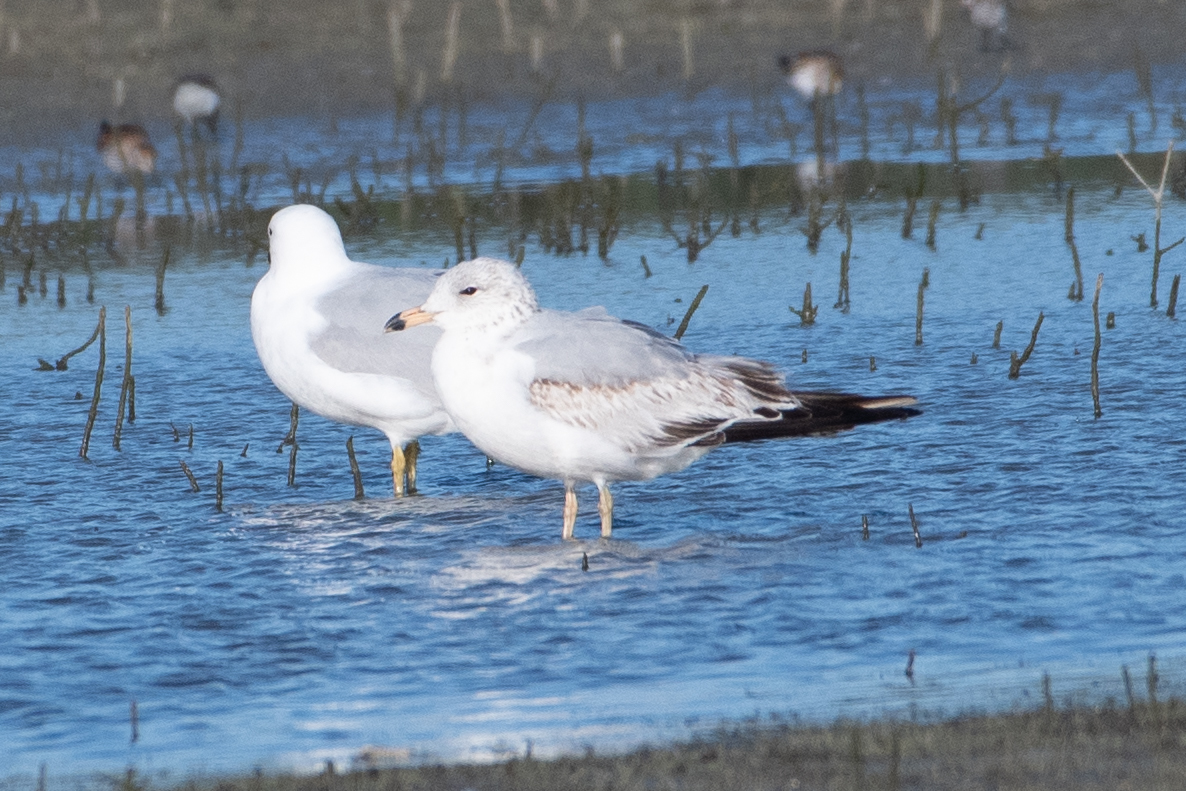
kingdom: Animalia
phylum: Chordata
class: Aves
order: Charadriiformes
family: Laridae
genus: Larus
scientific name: Larus delawarensis
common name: Ring-billed gull
